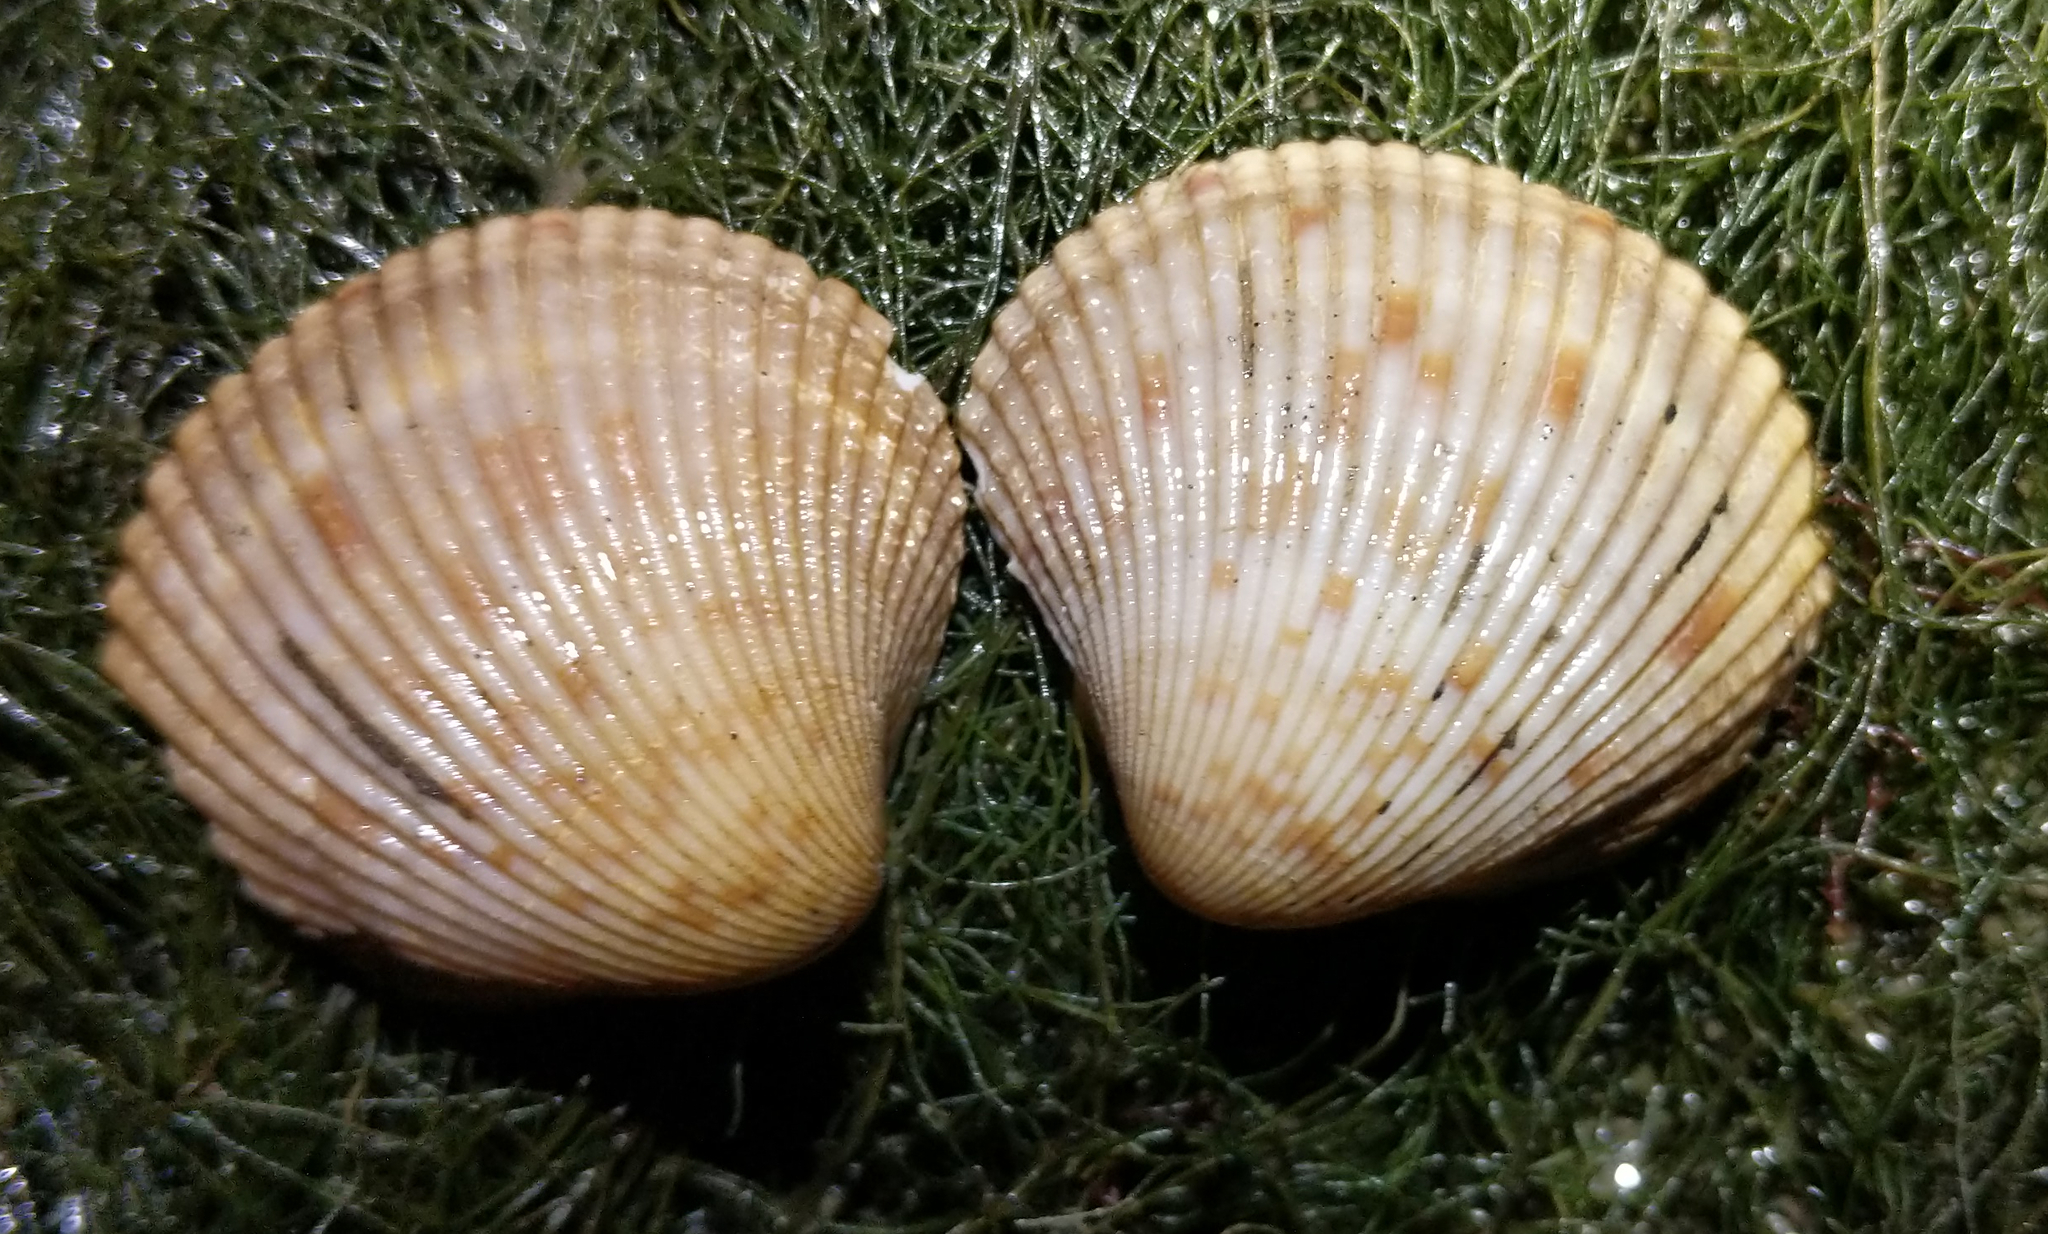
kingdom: Animalia
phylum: Mollusca
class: Bivalvia
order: Cardiida
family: Cardiidae
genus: Clinocardium
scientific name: Clinocardium nuttallii
